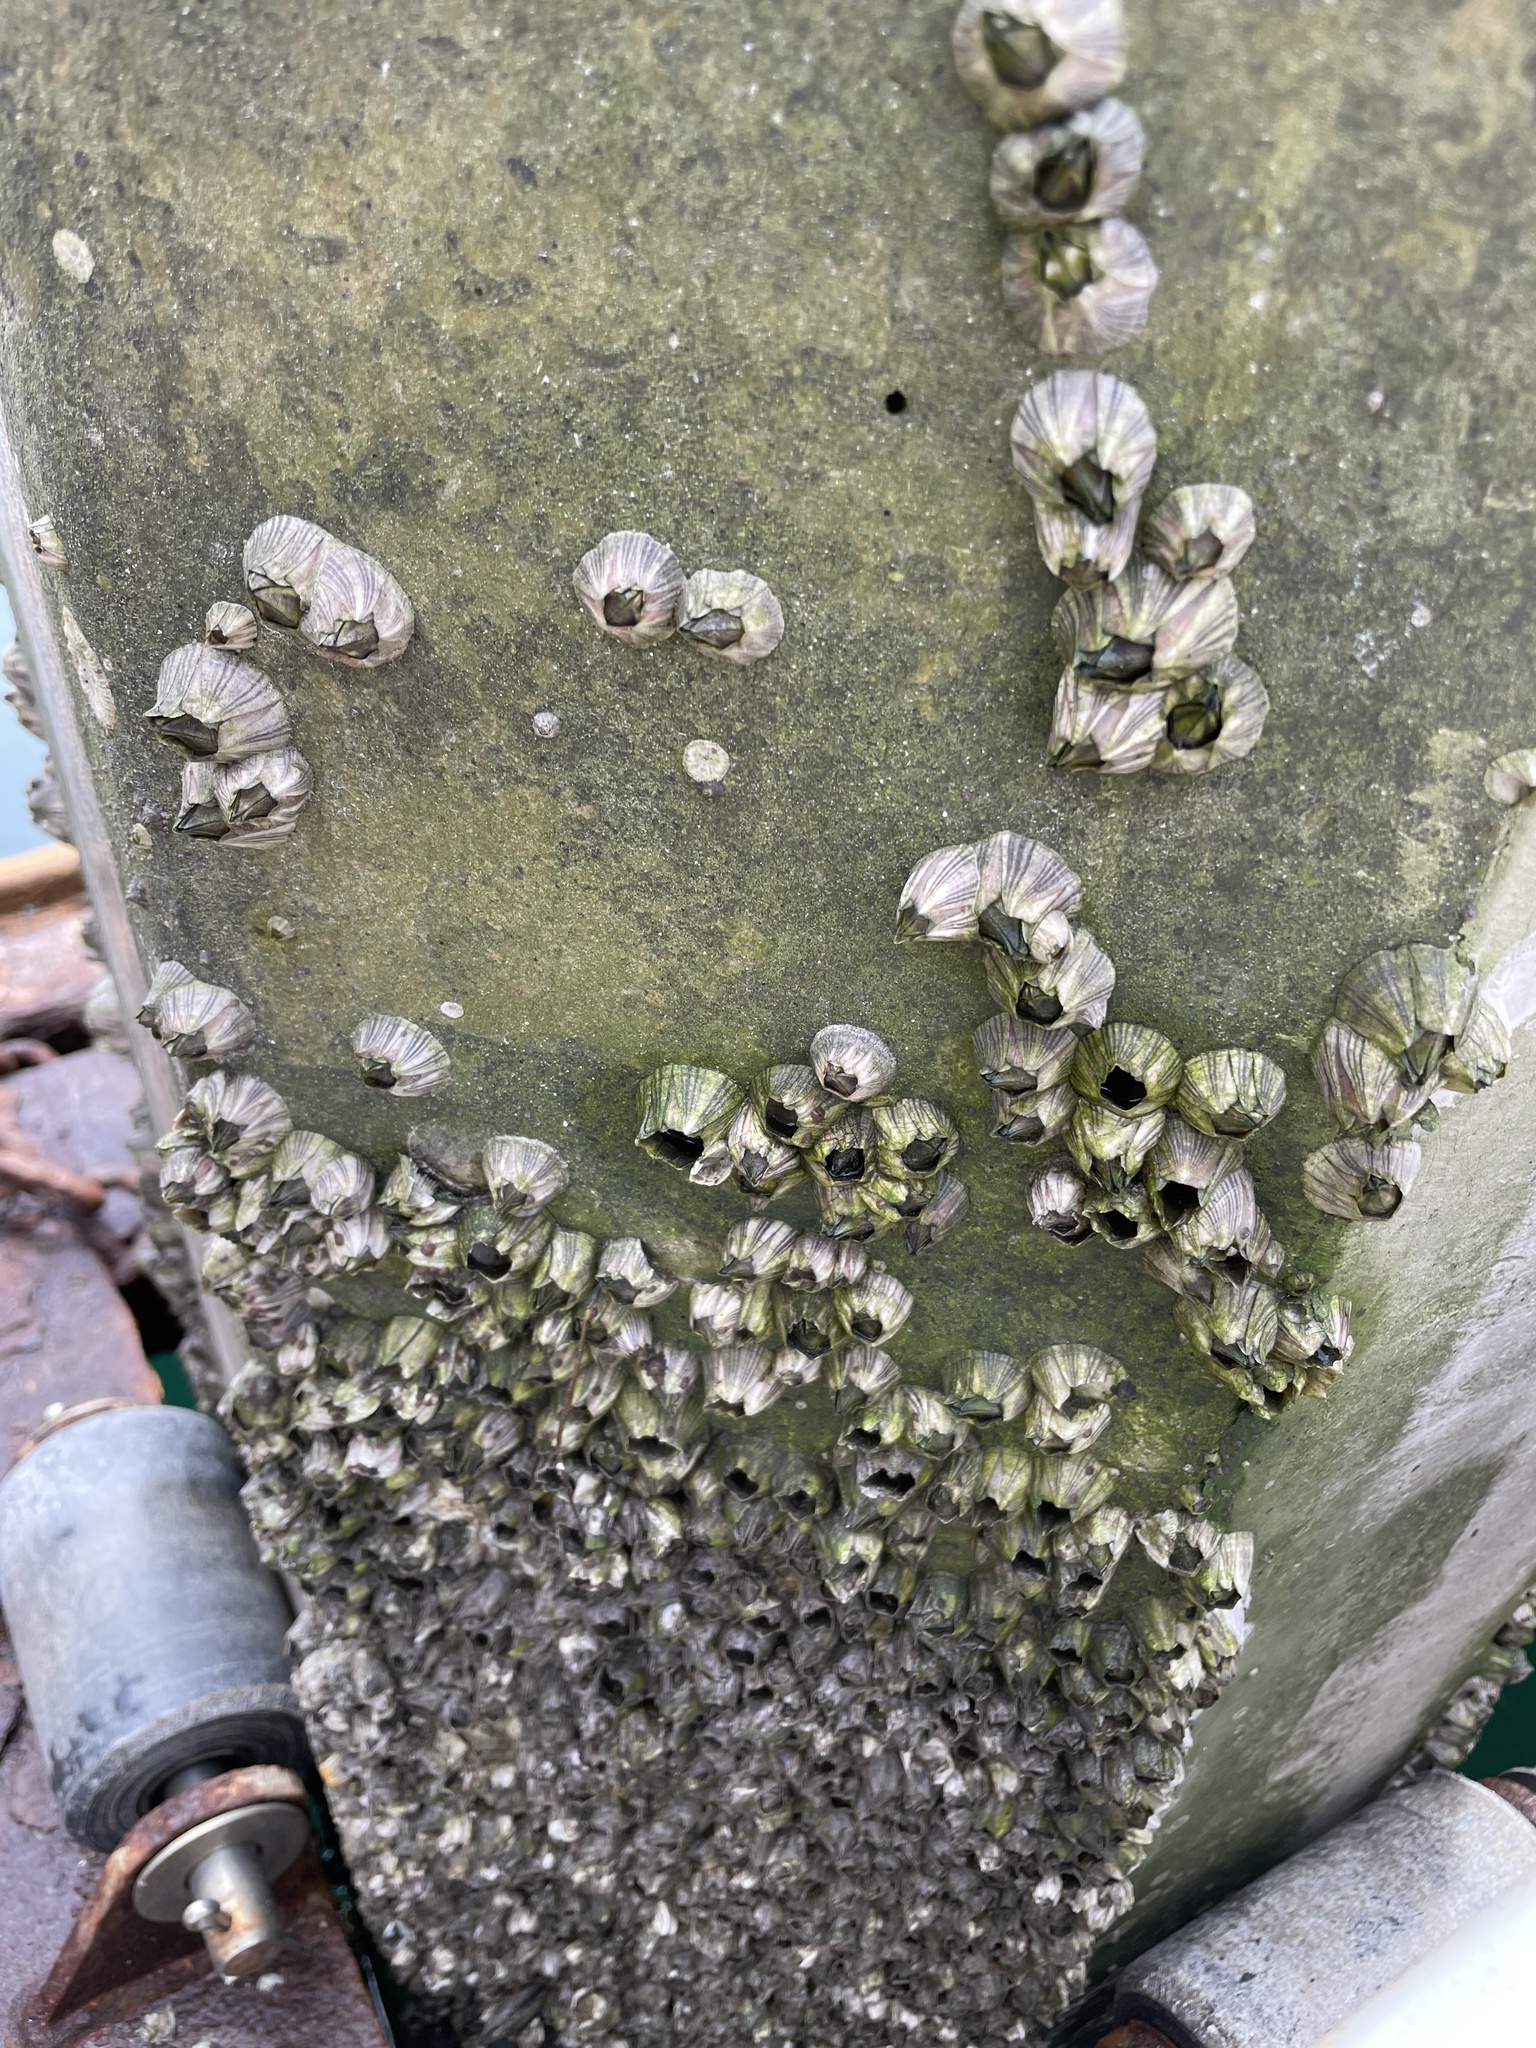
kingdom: Animalia
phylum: Arthropoda
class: Maxillopoda
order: Sessilia
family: Balanidae
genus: Amphibalanus
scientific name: Amphibalanus amphitrite
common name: Striped acorn barnacle
